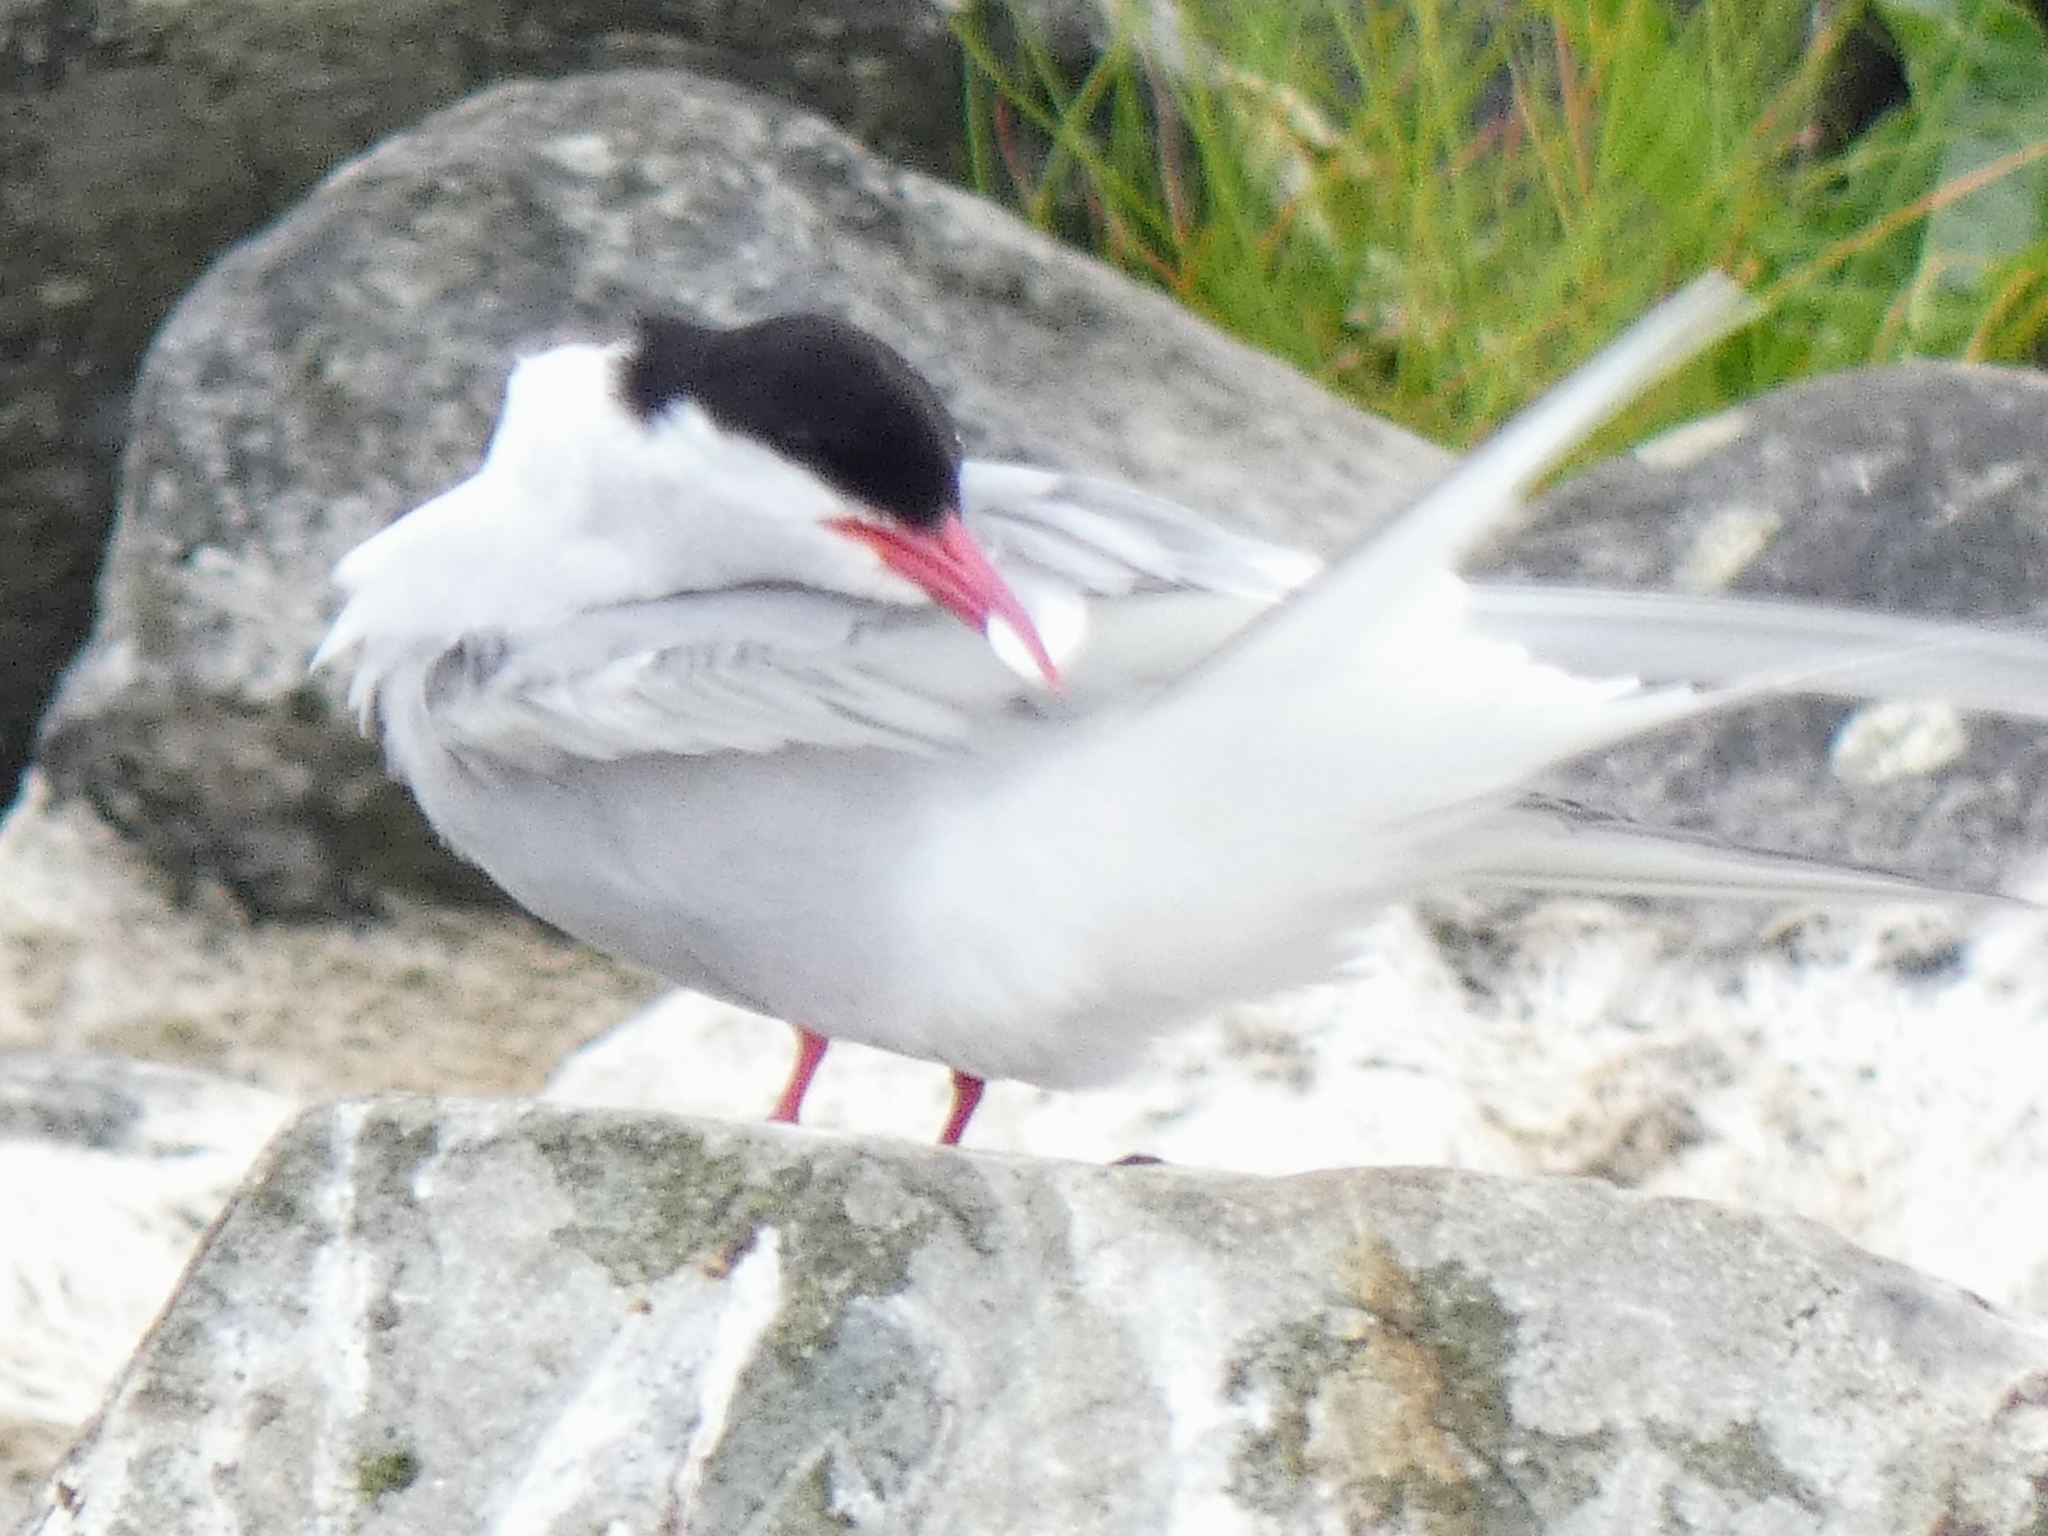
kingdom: Animalia
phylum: Chordata
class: Aves
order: Charadriiformes
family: Laridae
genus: Sterna
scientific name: Sterna paradisaea
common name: Arctic tern
